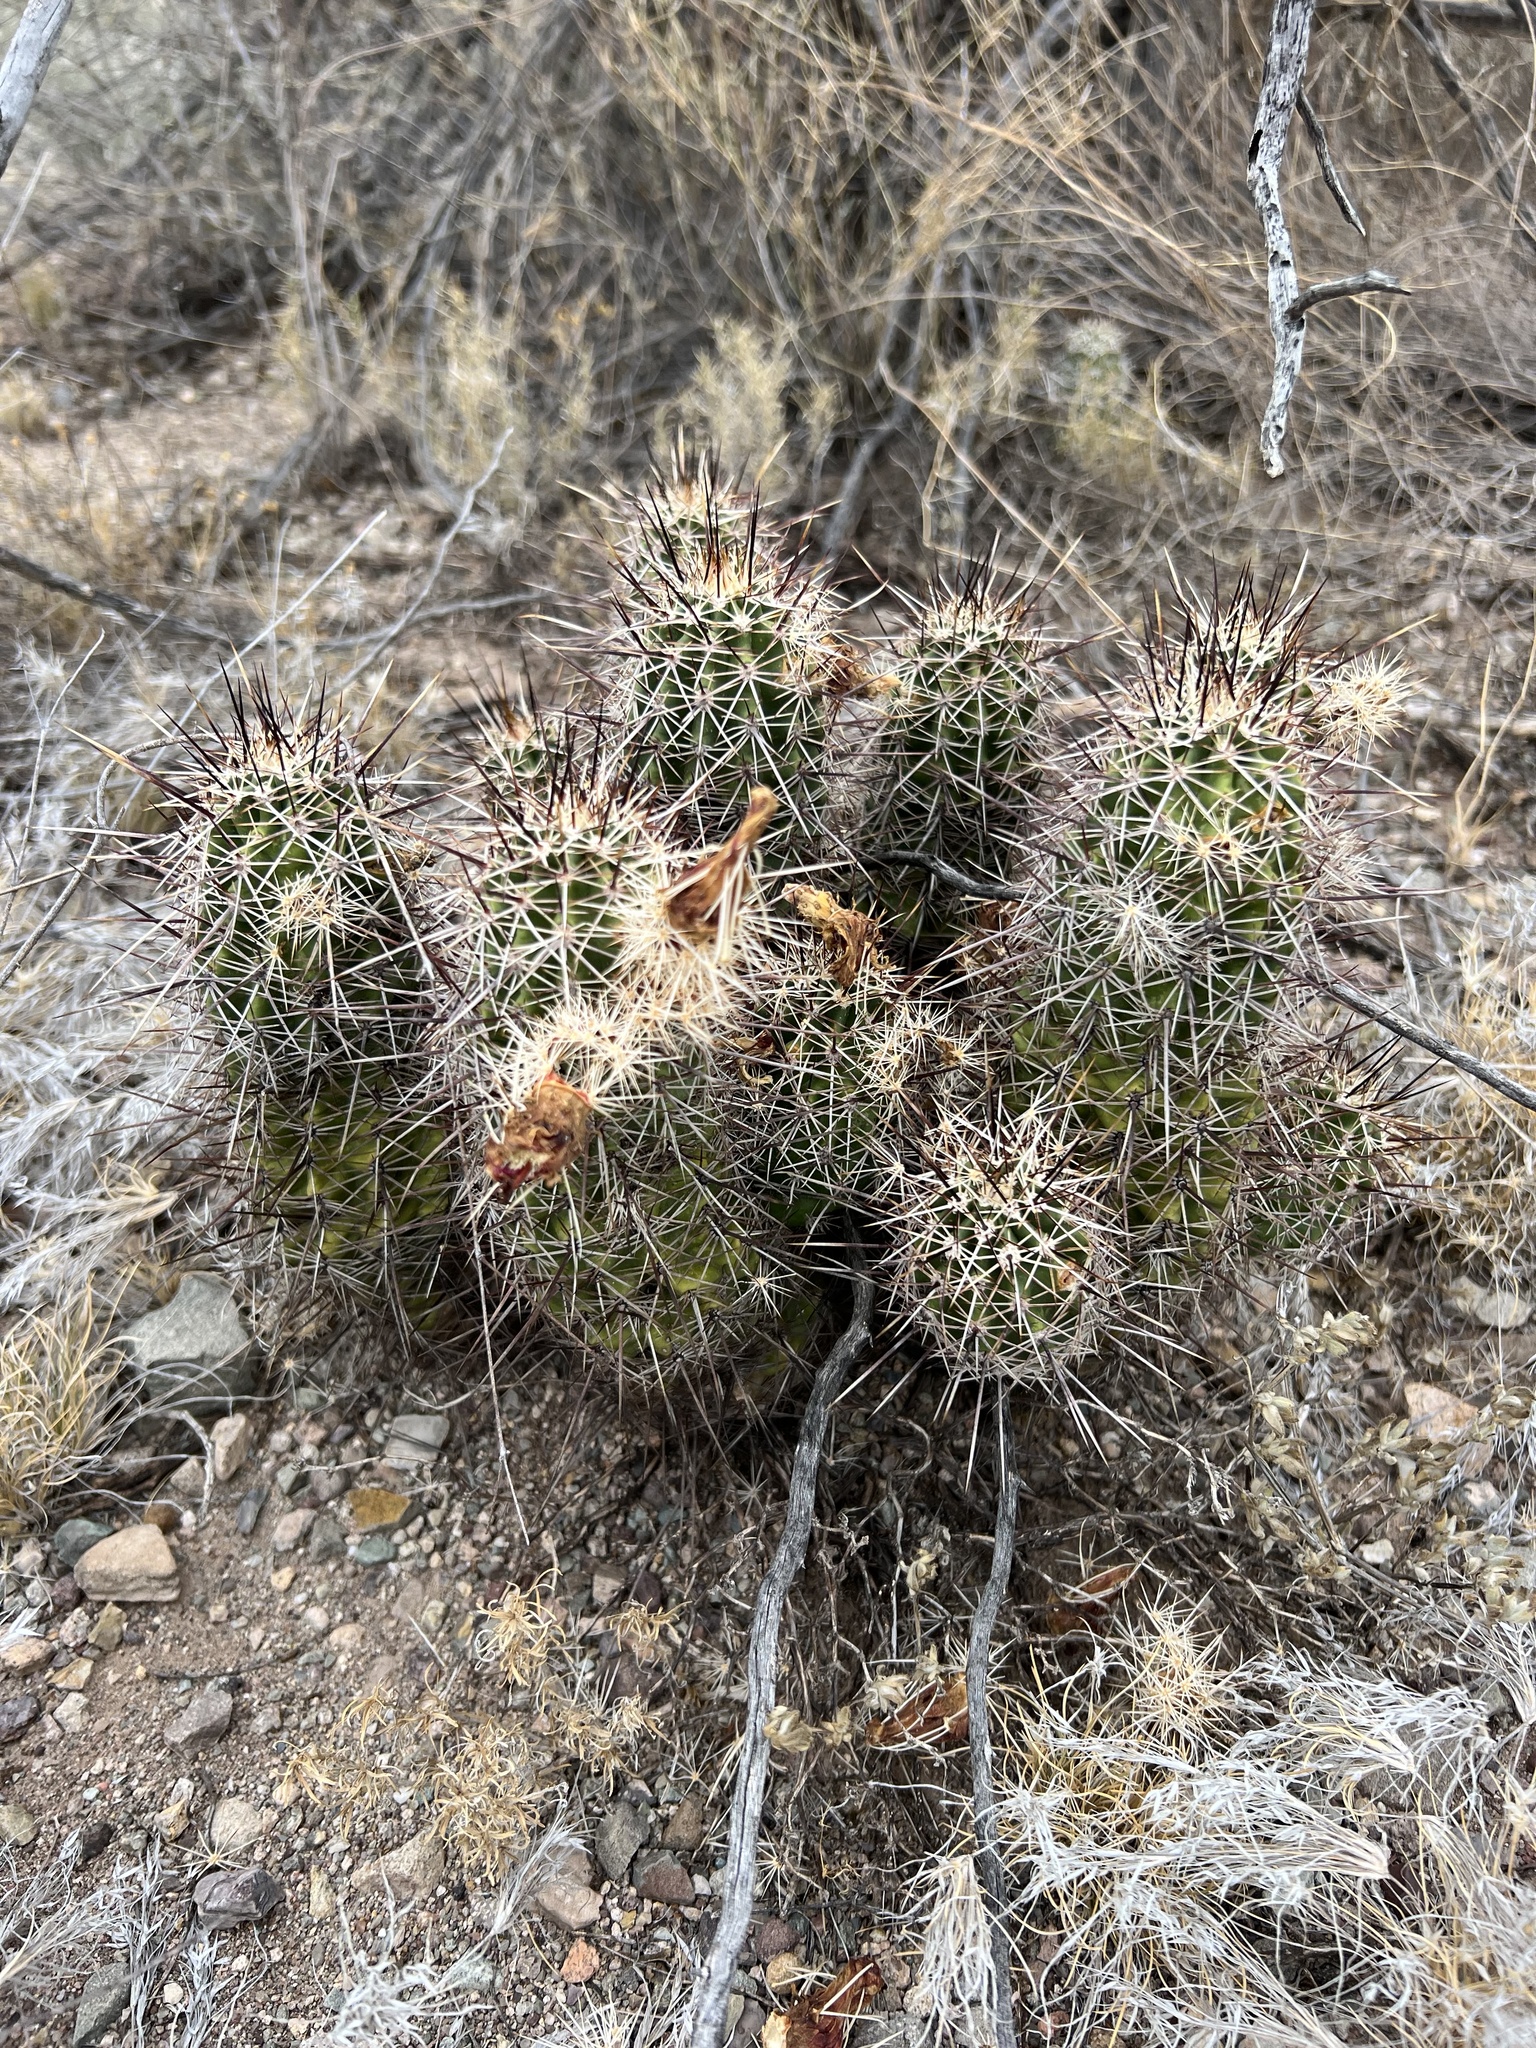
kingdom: Plantae
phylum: Tracheophyta
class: Magnoliopsida
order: Caryophyllales
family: Cactaceae
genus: Echinocereus
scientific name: Echinocereus fasciculatus
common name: Bundle hedgehog
